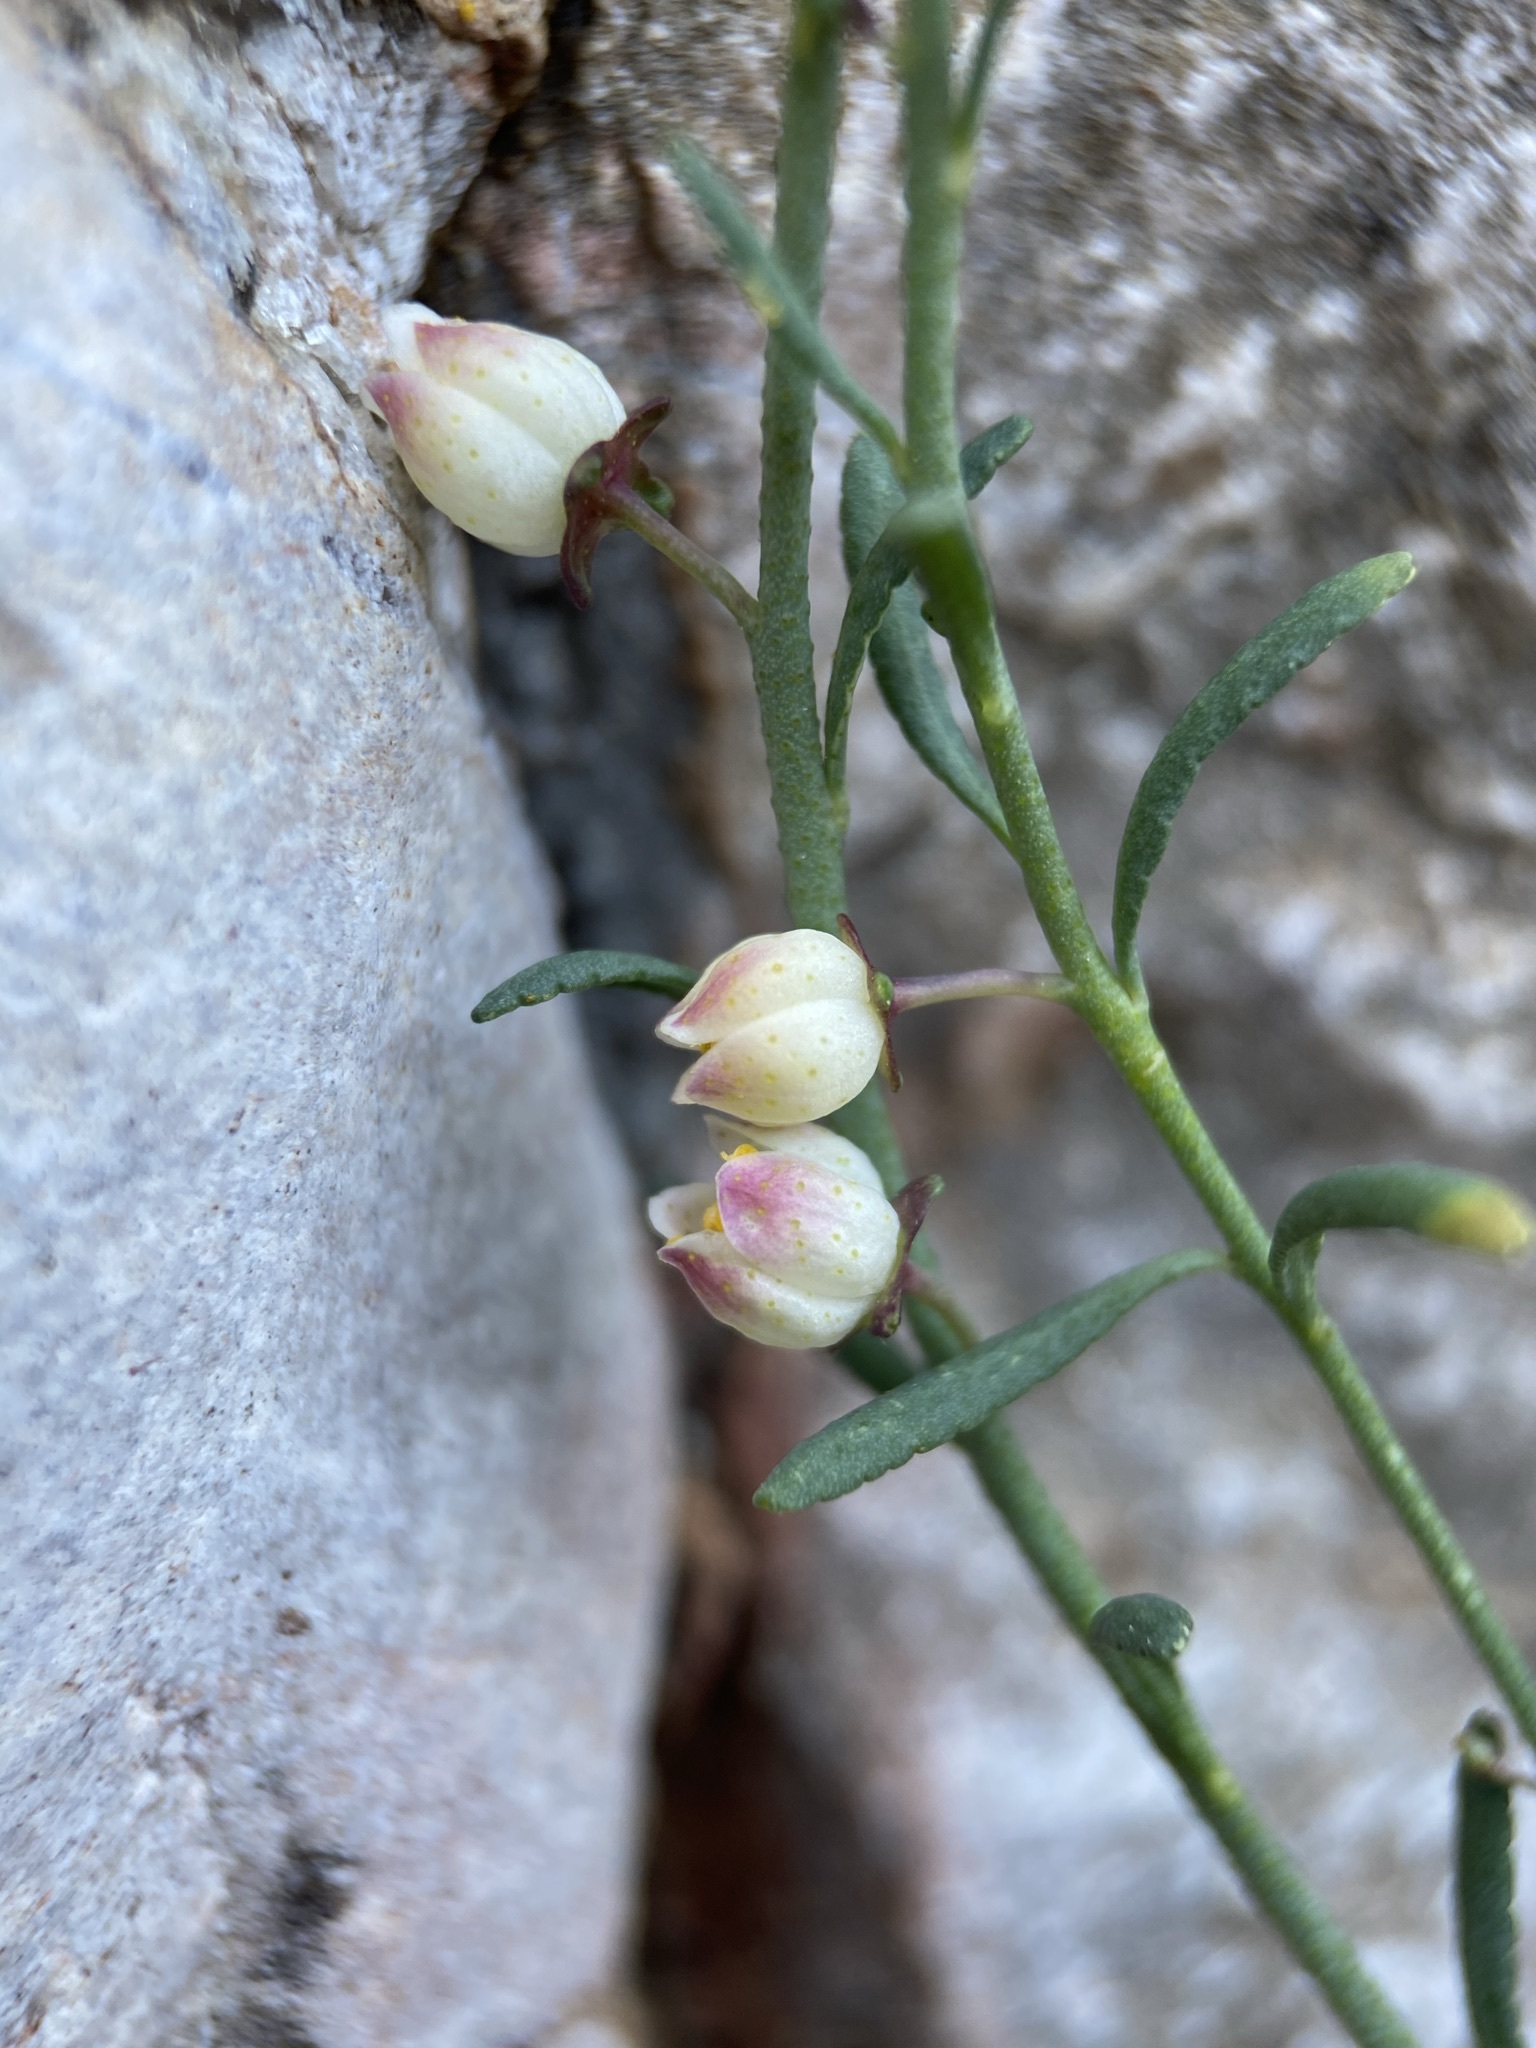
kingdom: Plantae
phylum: Tracheophyta
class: Magnoliopsida
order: Sapindales
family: Rutaceae
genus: Thamnosma
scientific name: Thamnosma texana
